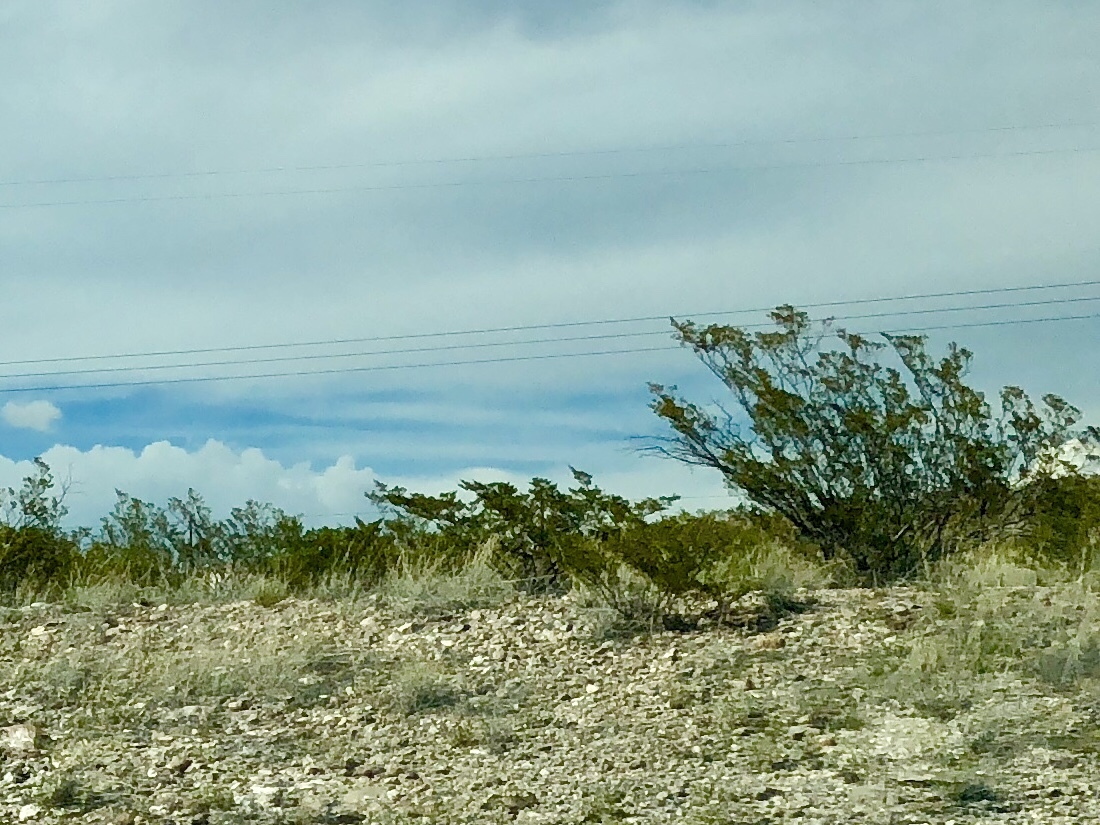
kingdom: Plantae
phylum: Tracheophyta
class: Magnoliopsida
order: Zygophyllales
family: Zygophyllaceae
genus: Larrea
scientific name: Larrea tridentata
